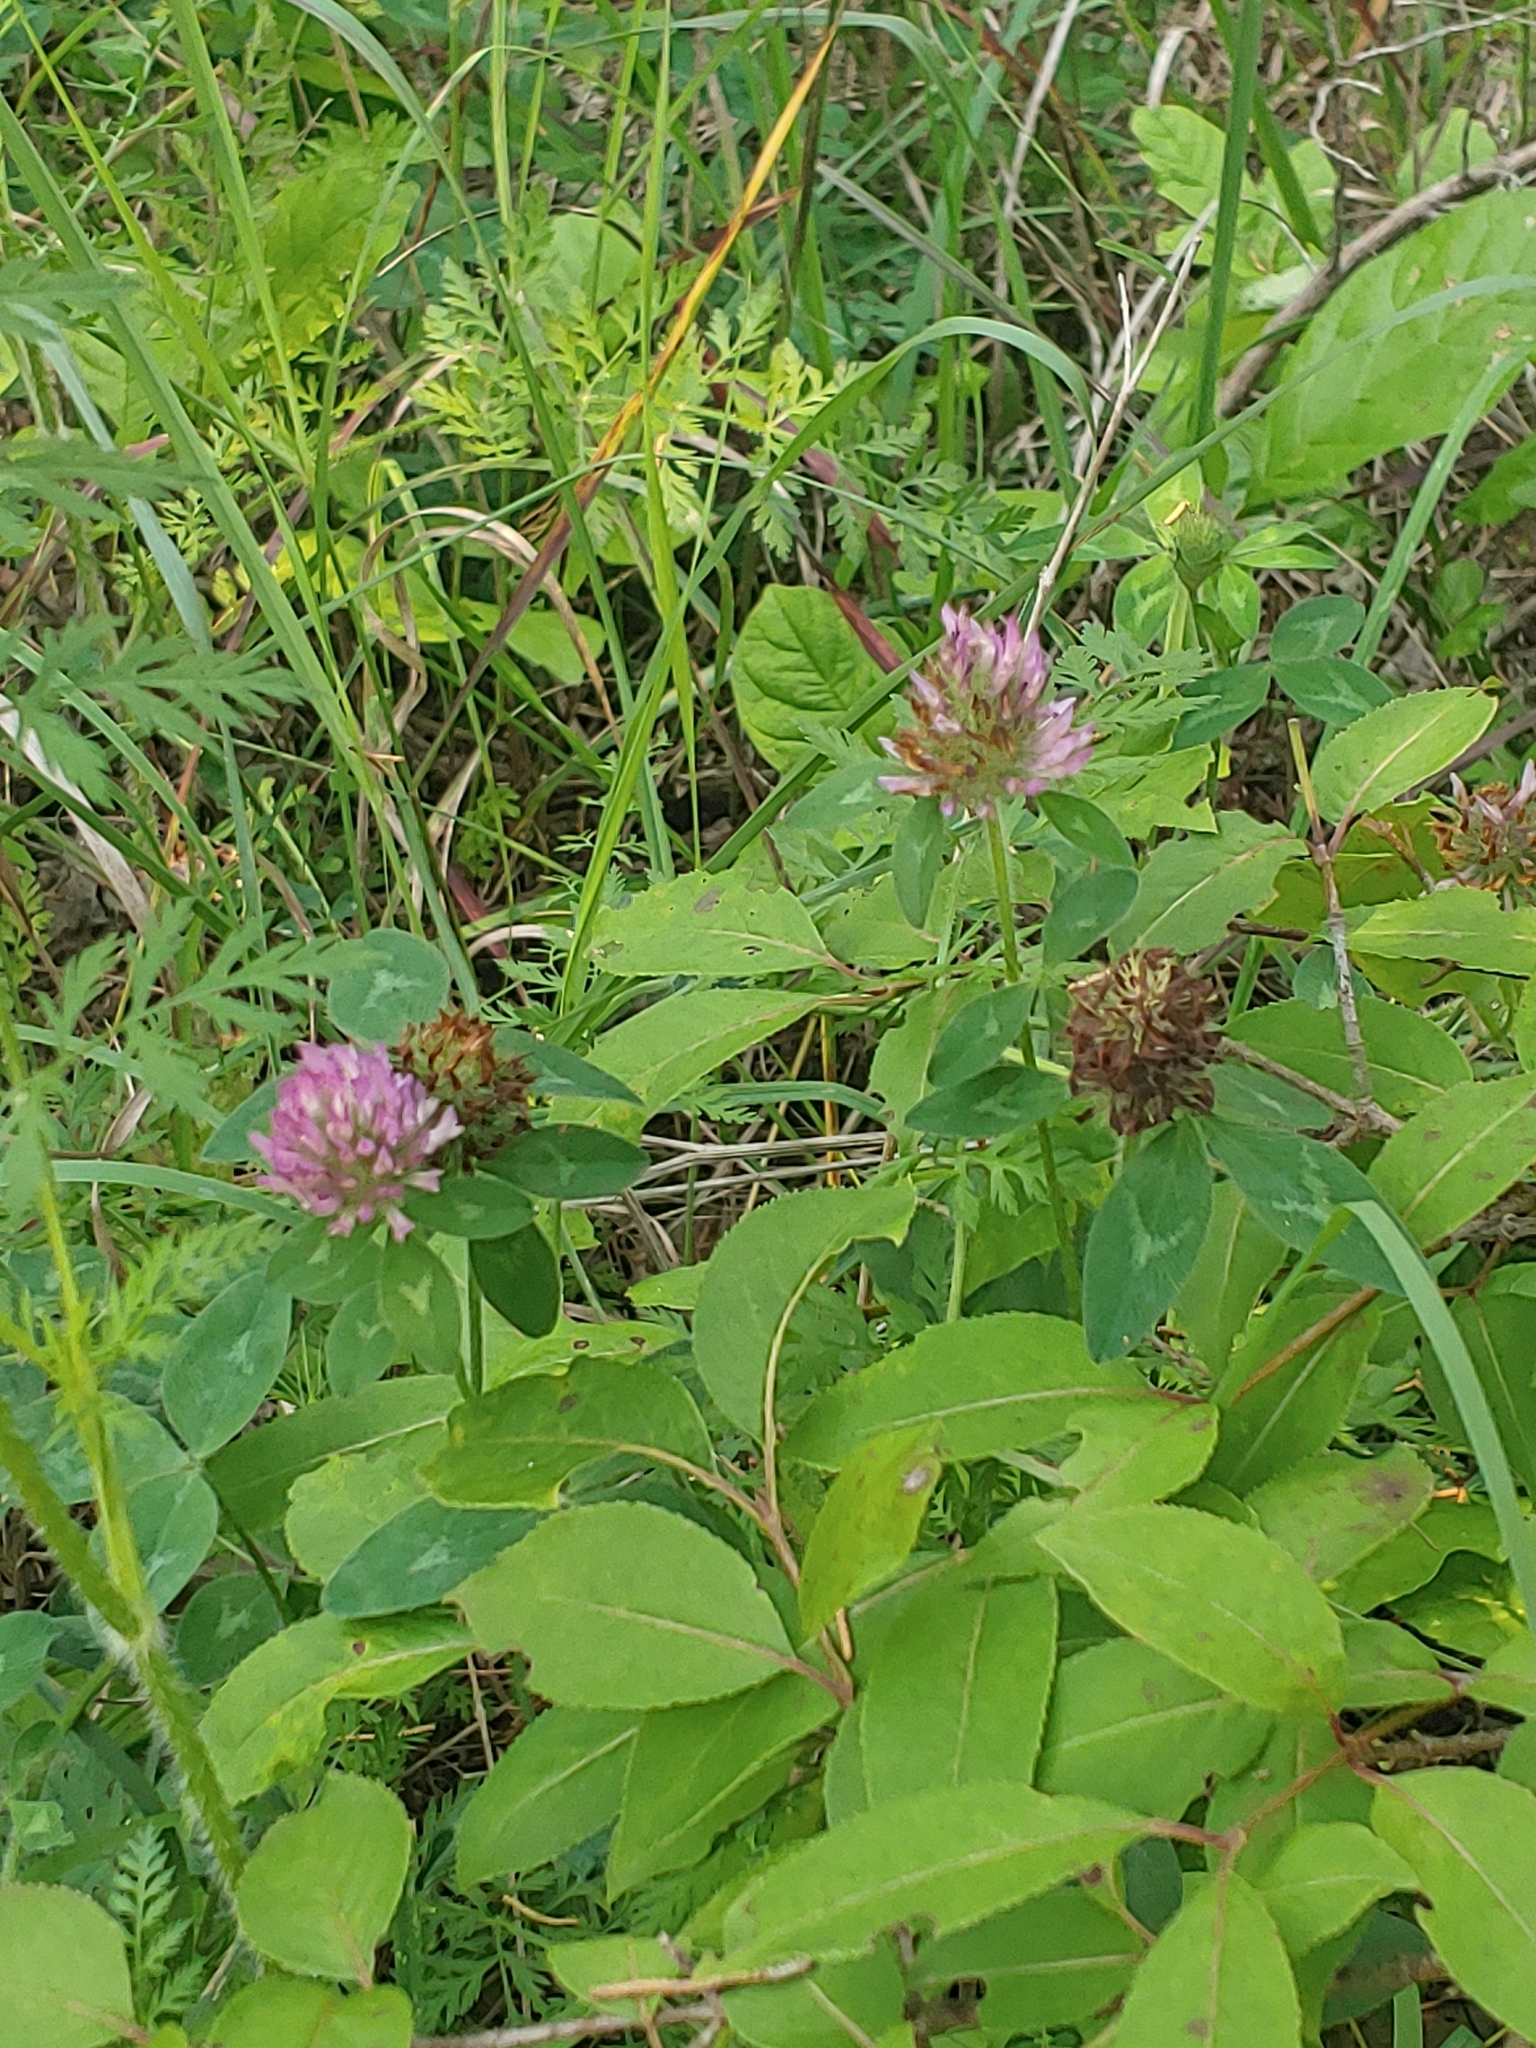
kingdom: Plantae
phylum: Tracheophyta
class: Magnoliopsida
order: Fabales
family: Fabaceae
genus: Trifolium
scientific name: Trifolium pratense
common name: Red clover
